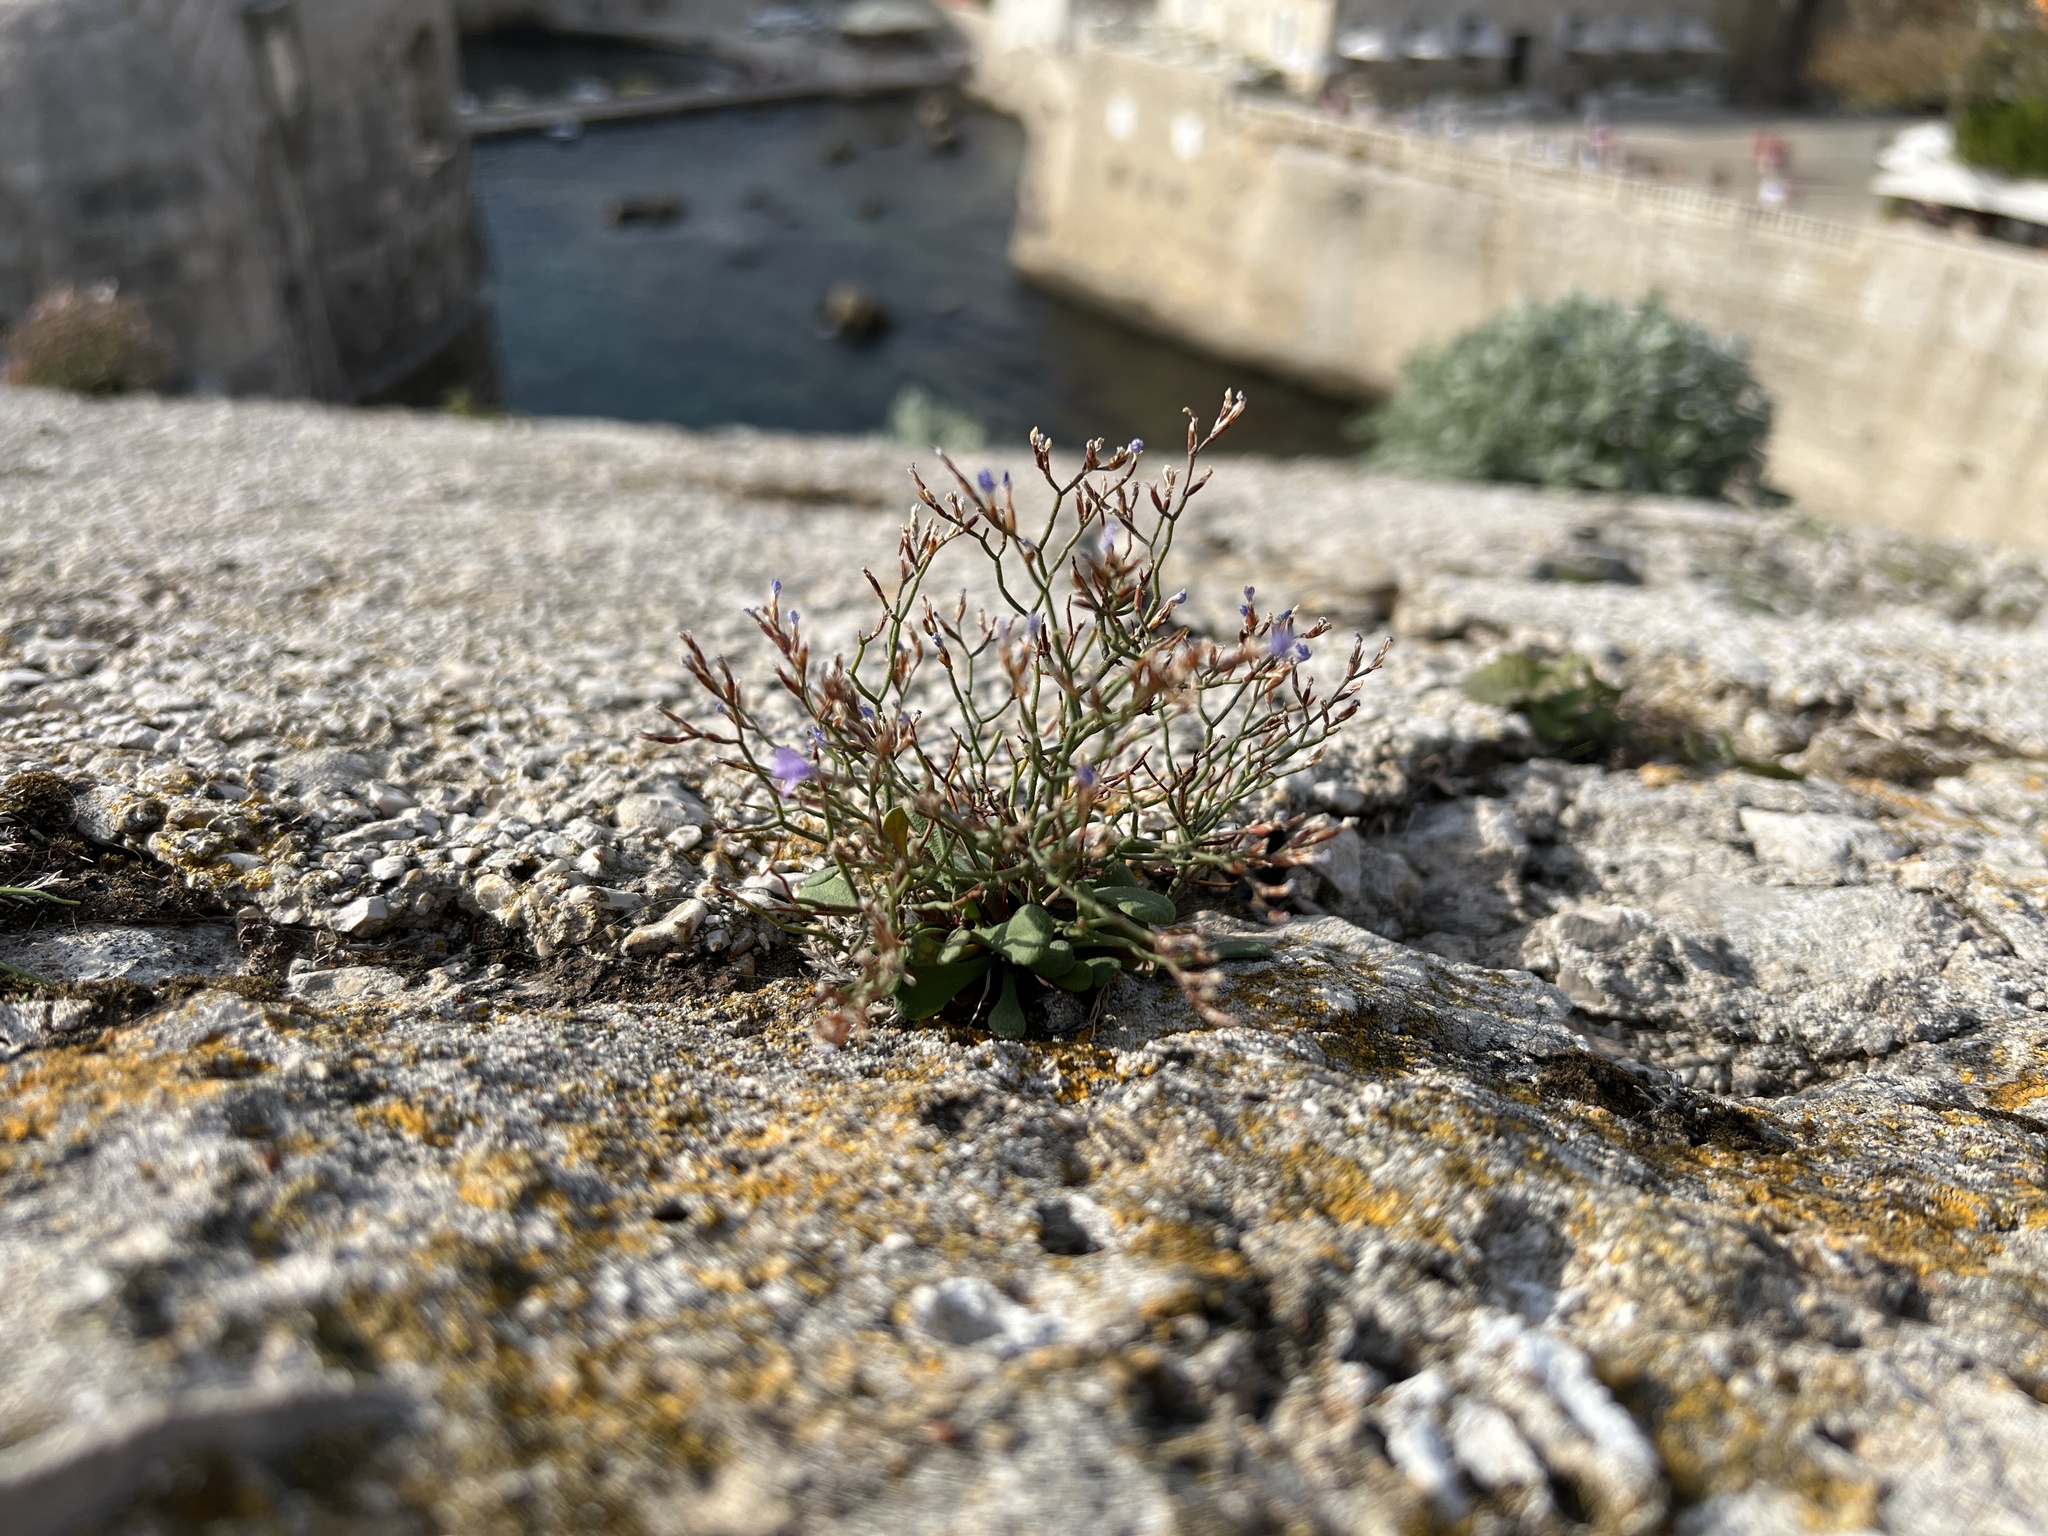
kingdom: Plantae
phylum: Tracheophyta
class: Magnoliopsida
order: Caryophyllales
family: Plumbaginaceae
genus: Limonium
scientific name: Limonium dictyophorum
